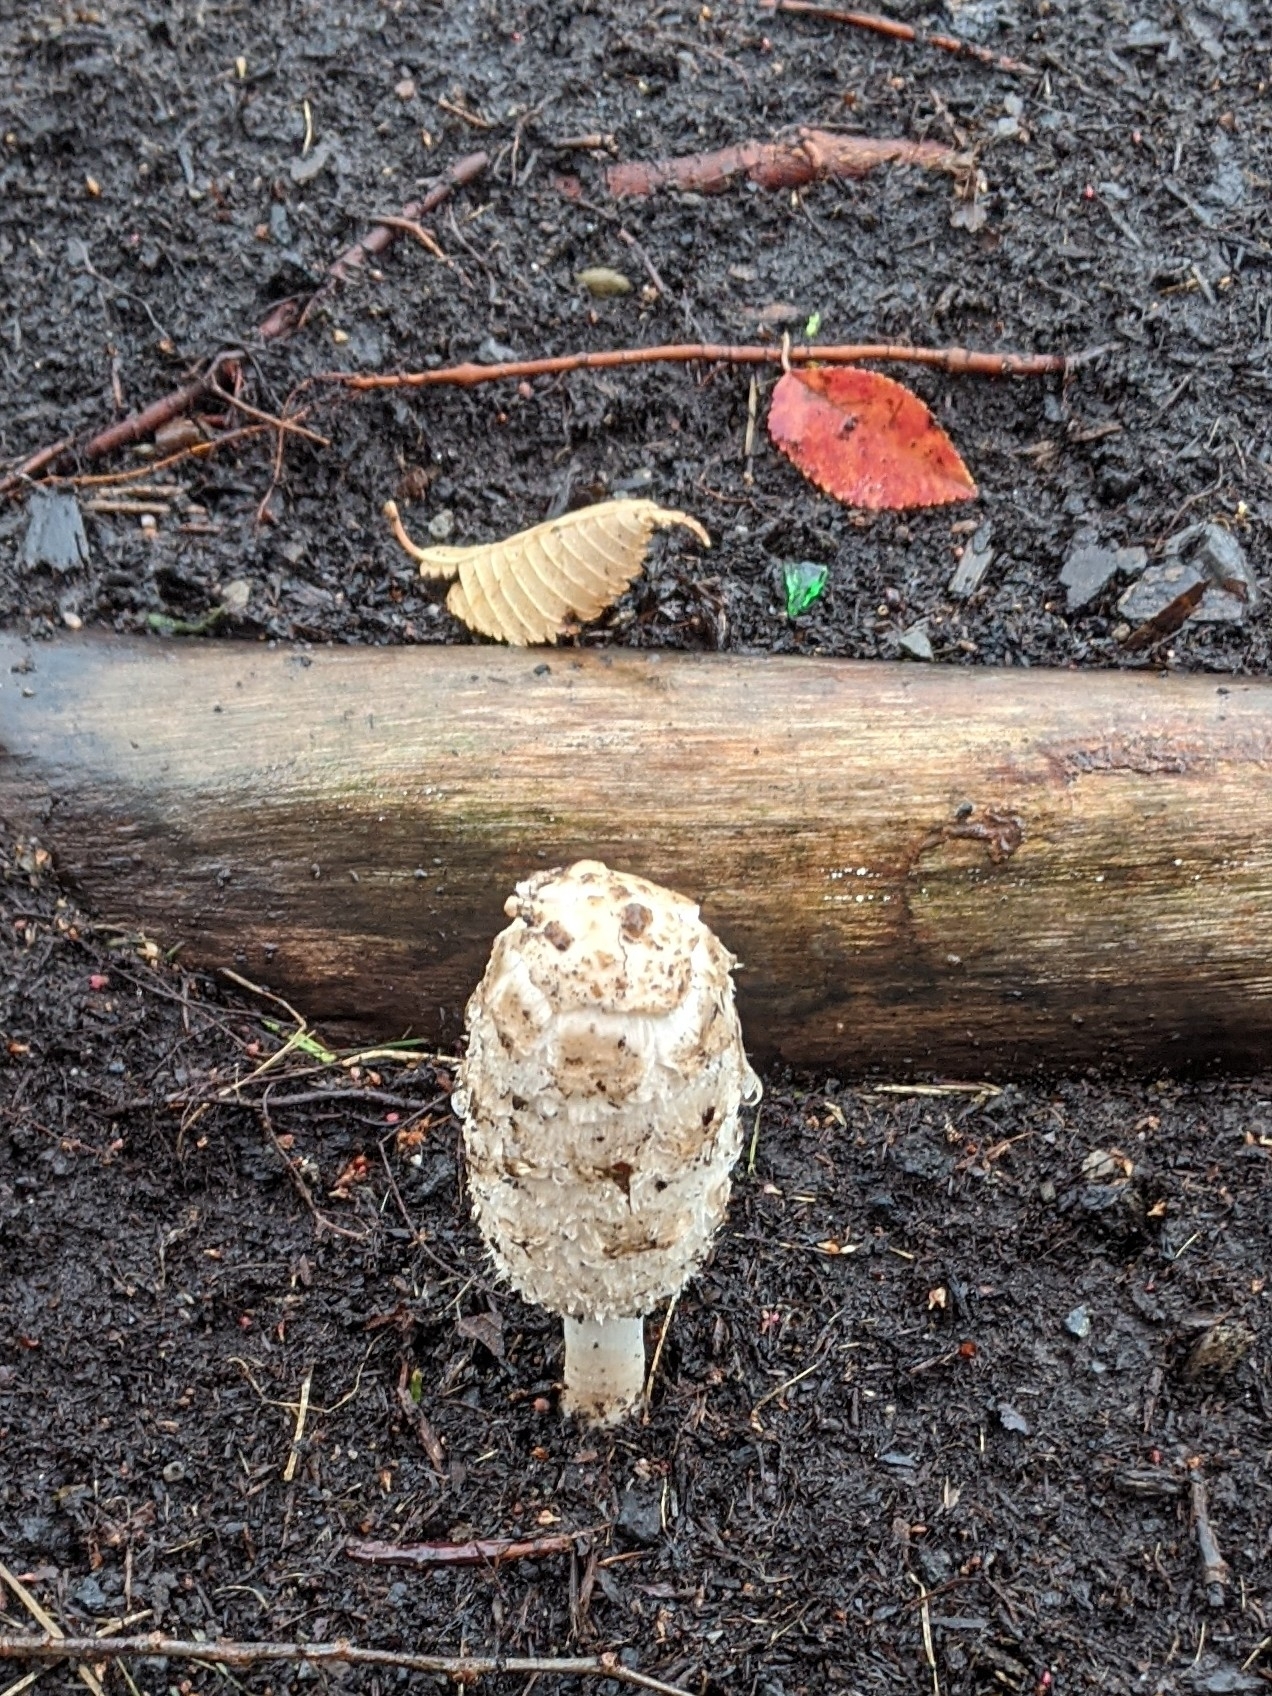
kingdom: Fungi
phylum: Basidiomycota
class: Agaricomycetes
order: Agaricales
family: Agaricaceae
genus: Coprinus
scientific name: Coprinus comatus
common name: Lawyer's wig
